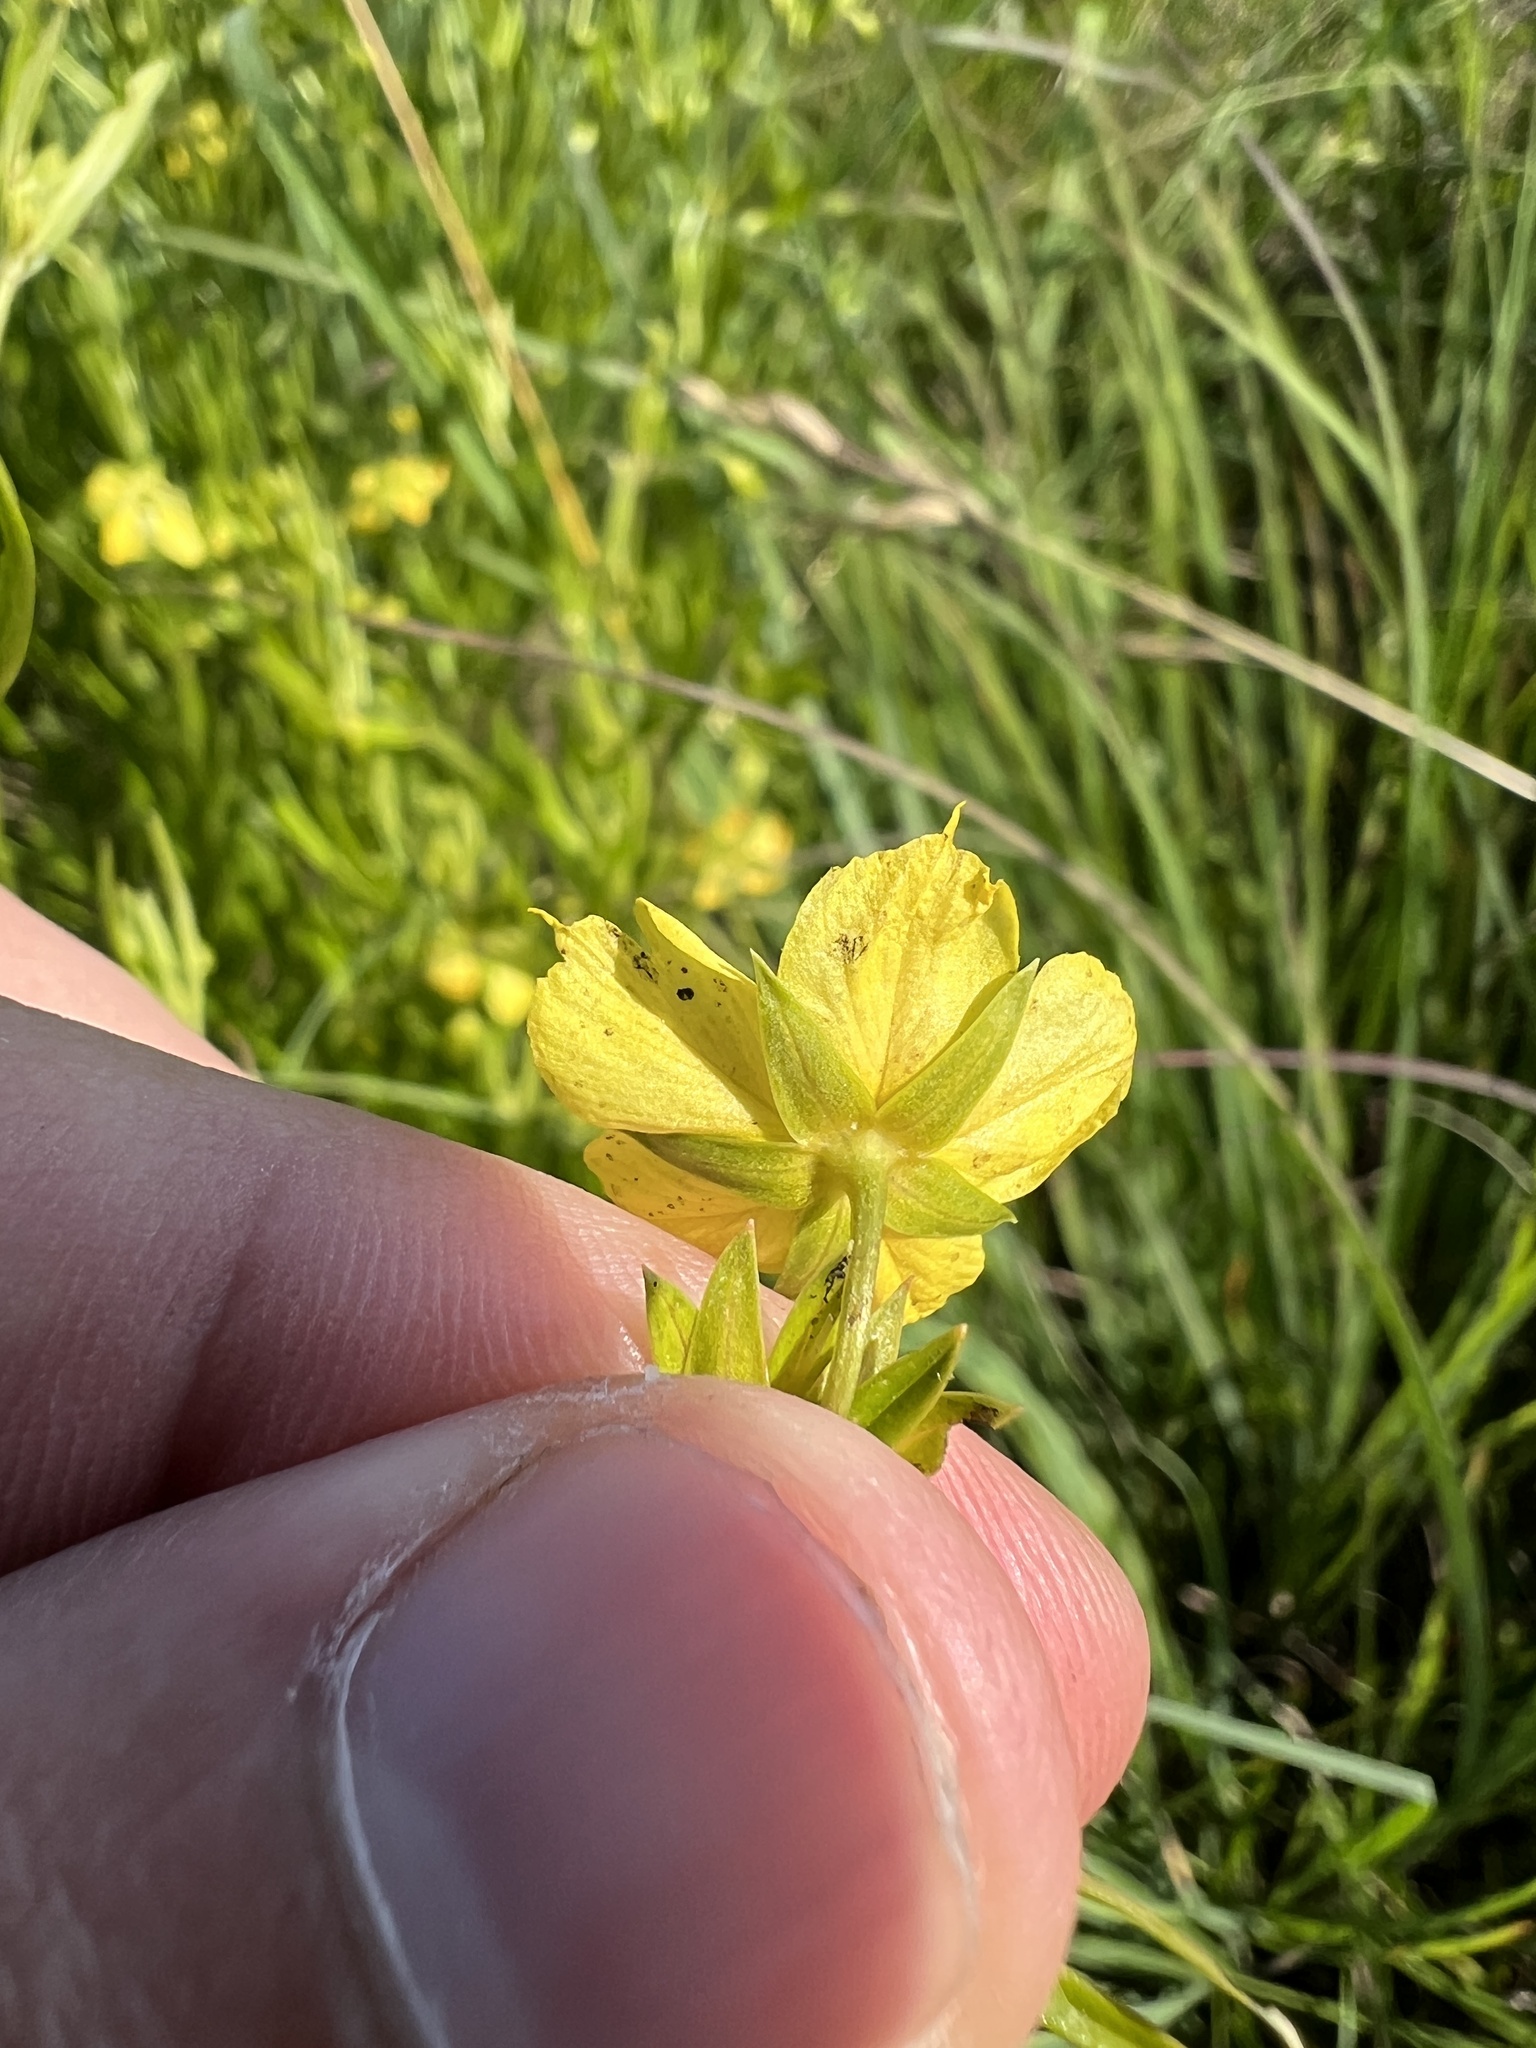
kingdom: Plantae
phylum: Tracheophyta
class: Magnoliopsida
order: Ericales
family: Primulaceae
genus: Lysimachia
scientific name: Lysimachia quadriflora
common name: Four-flowered loosestrife
